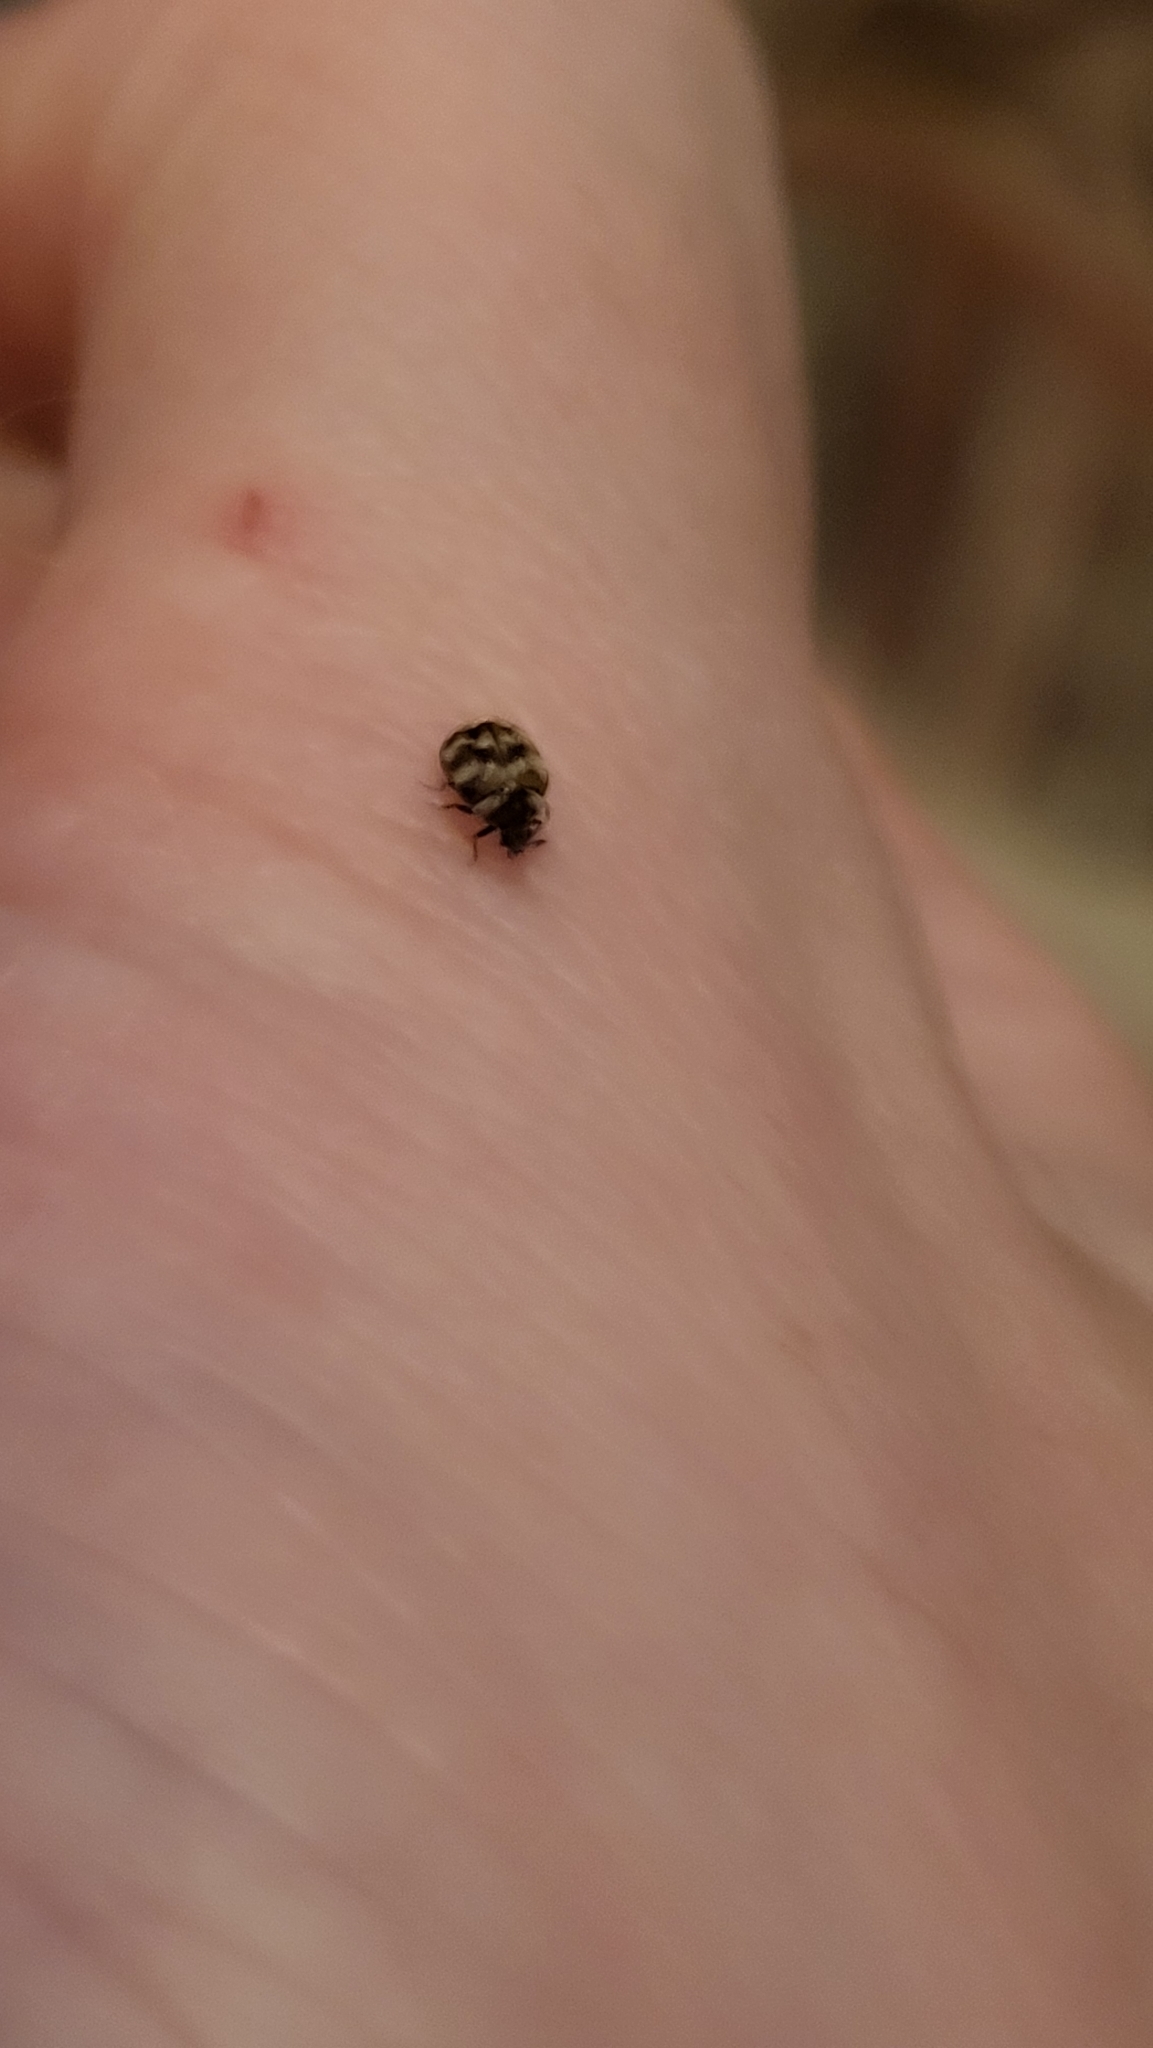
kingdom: Animalia
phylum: Arthropoda
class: Insecta
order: Coleoptera
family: Dermestidae
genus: Anthrenus
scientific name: Anthrenus verbasci
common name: Varied carpet beetle
